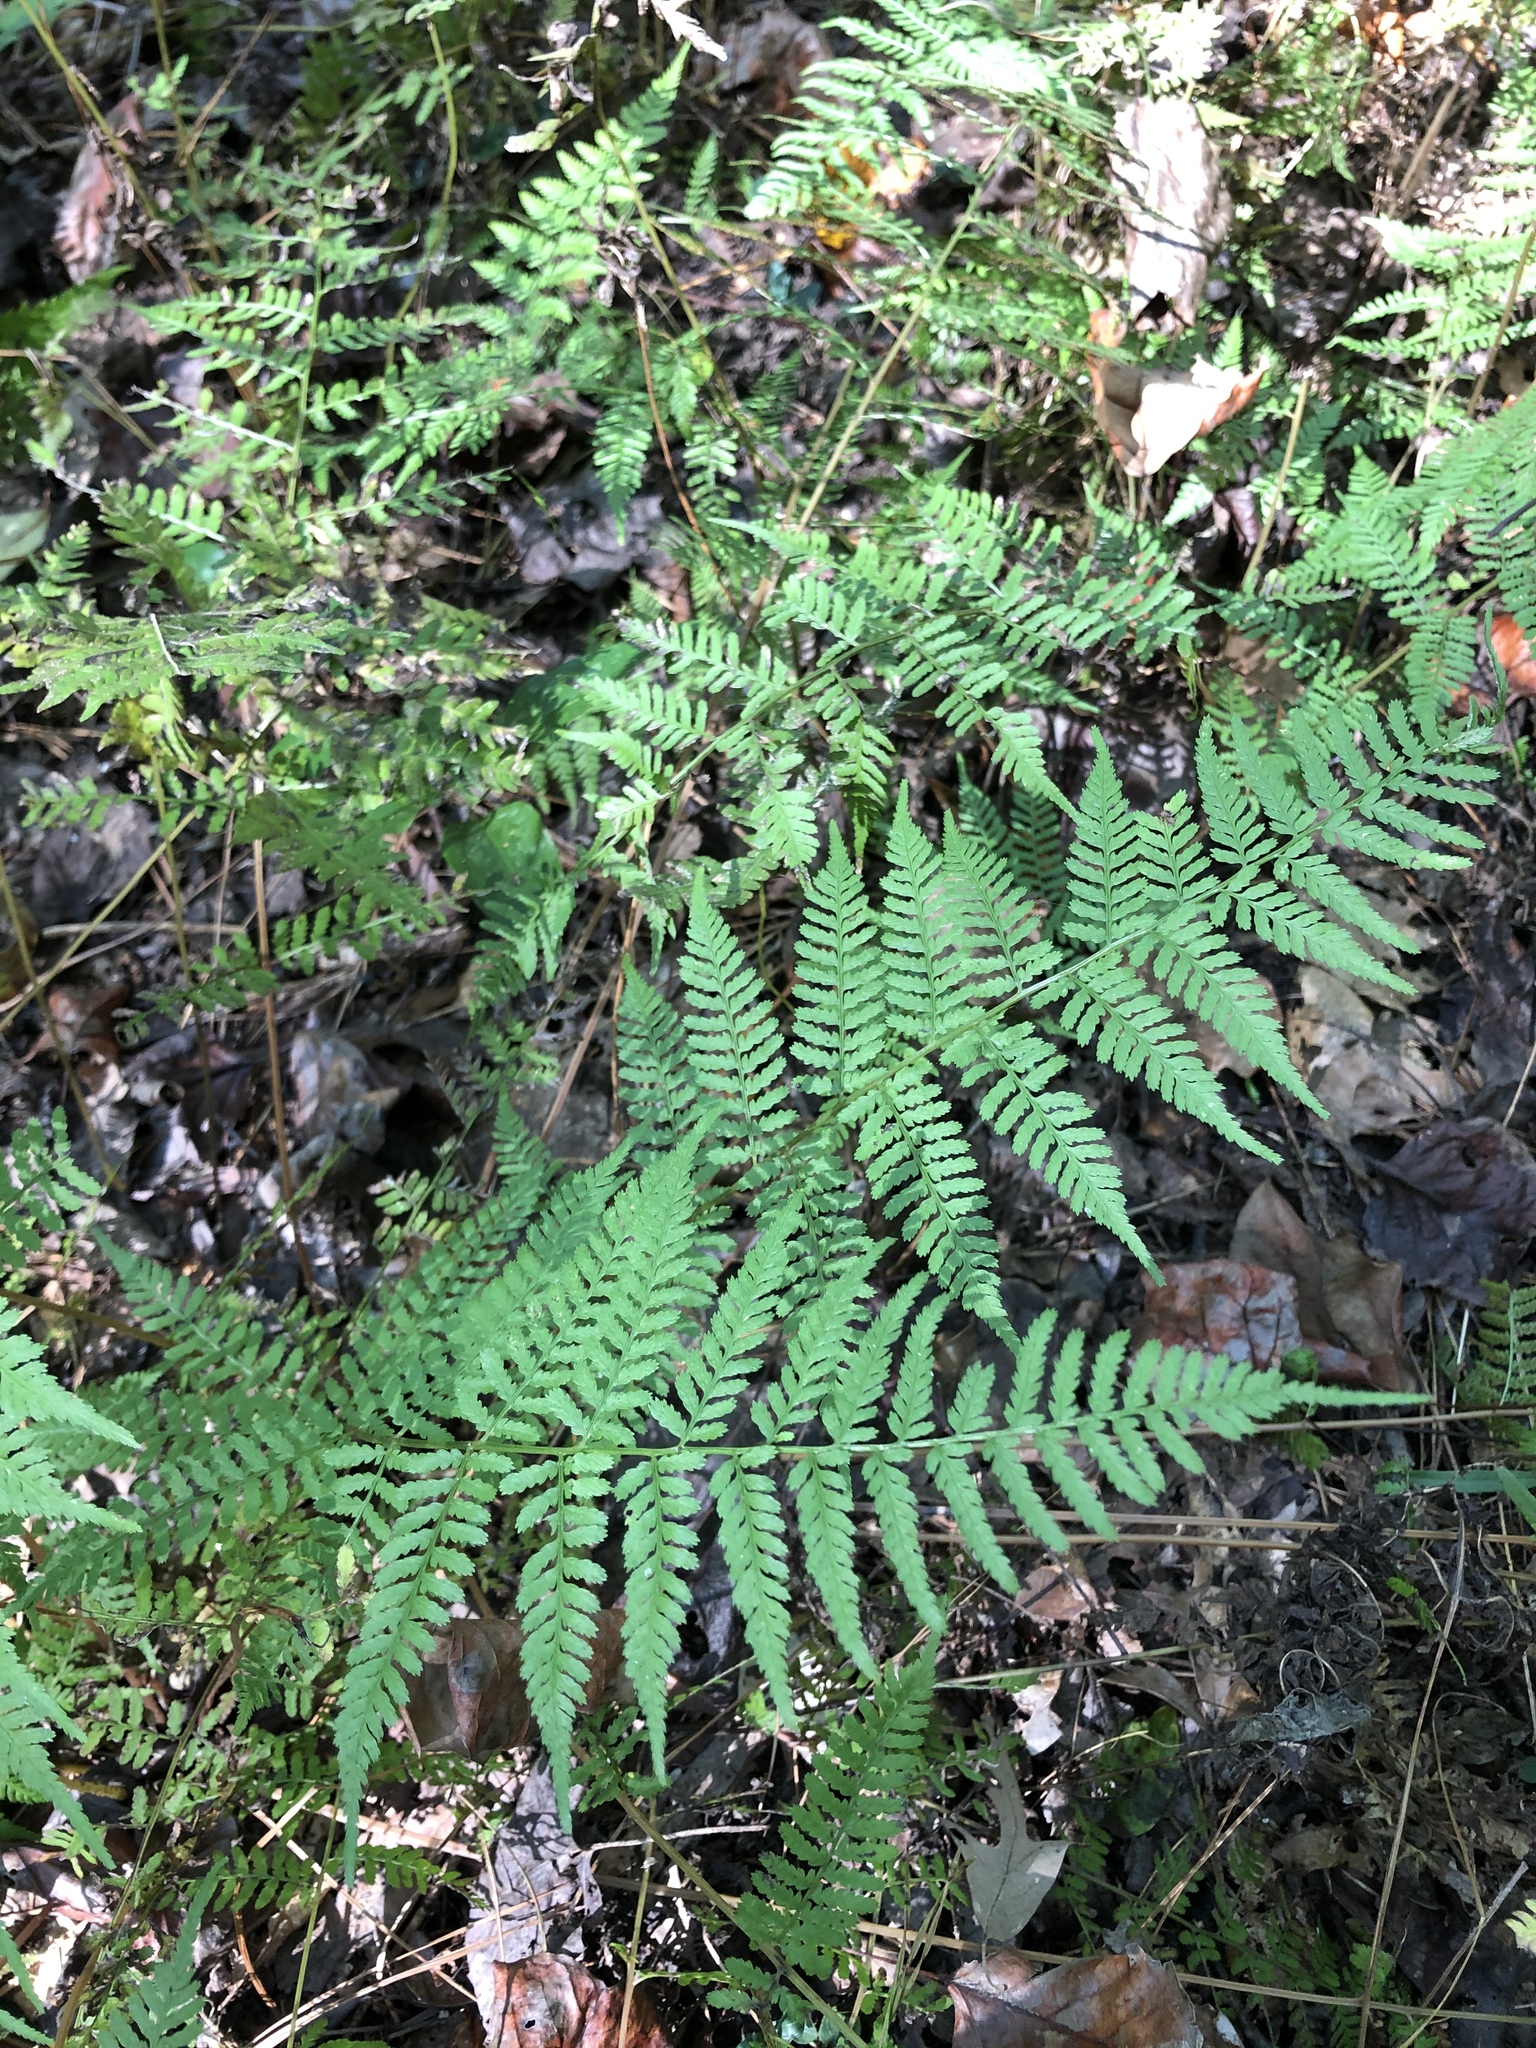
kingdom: Plantae
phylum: Tracheophyta
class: Polypodiopsida
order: Polypodiales
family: Athyriaceae
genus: Athyrium
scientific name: Athyrium asplenioides
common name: Southern lady fern
